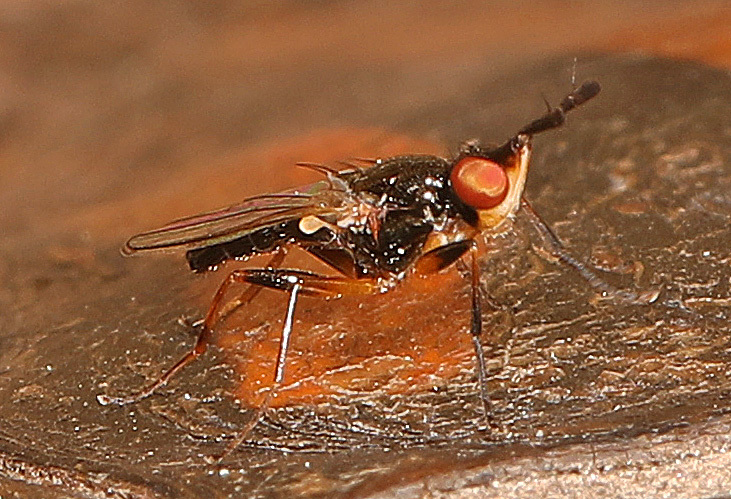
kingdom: Animalia
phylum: Arthropoda
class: Insecta
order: Diptera
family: Piophilidae
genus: Prochyliza
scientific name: Prochyliza xanthostoma
